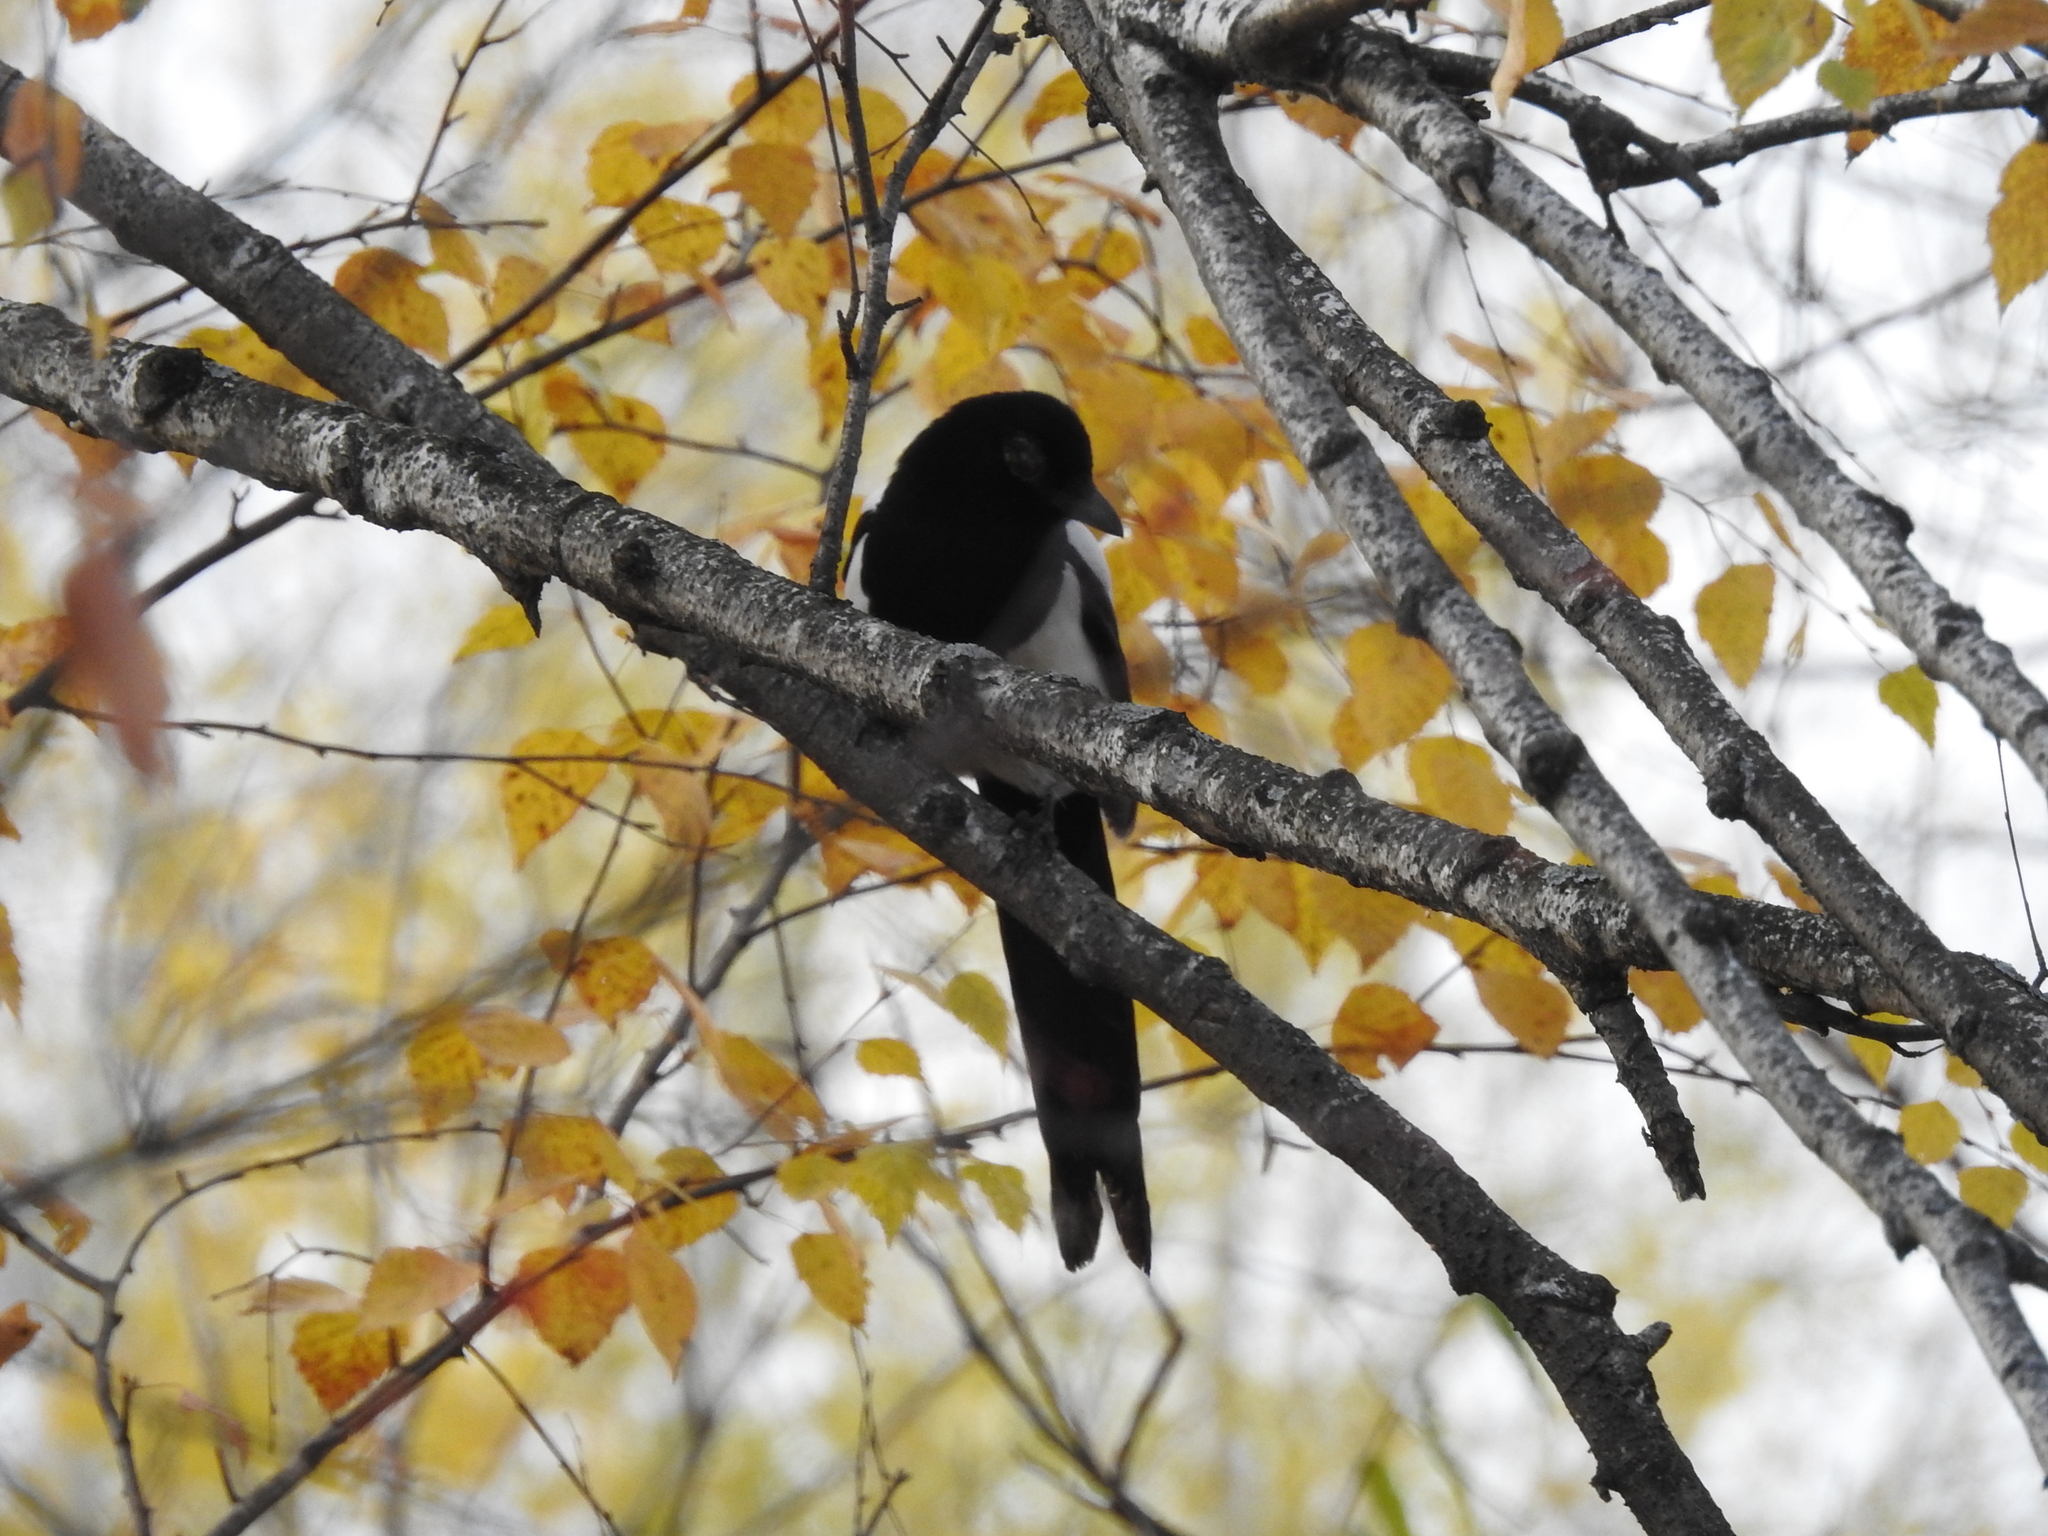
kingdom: Animalia
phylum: Chordata
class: Aves
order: Passeriformes
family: Corvidae
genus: Pica
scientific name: Pica pica
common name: Eurasian magpie
